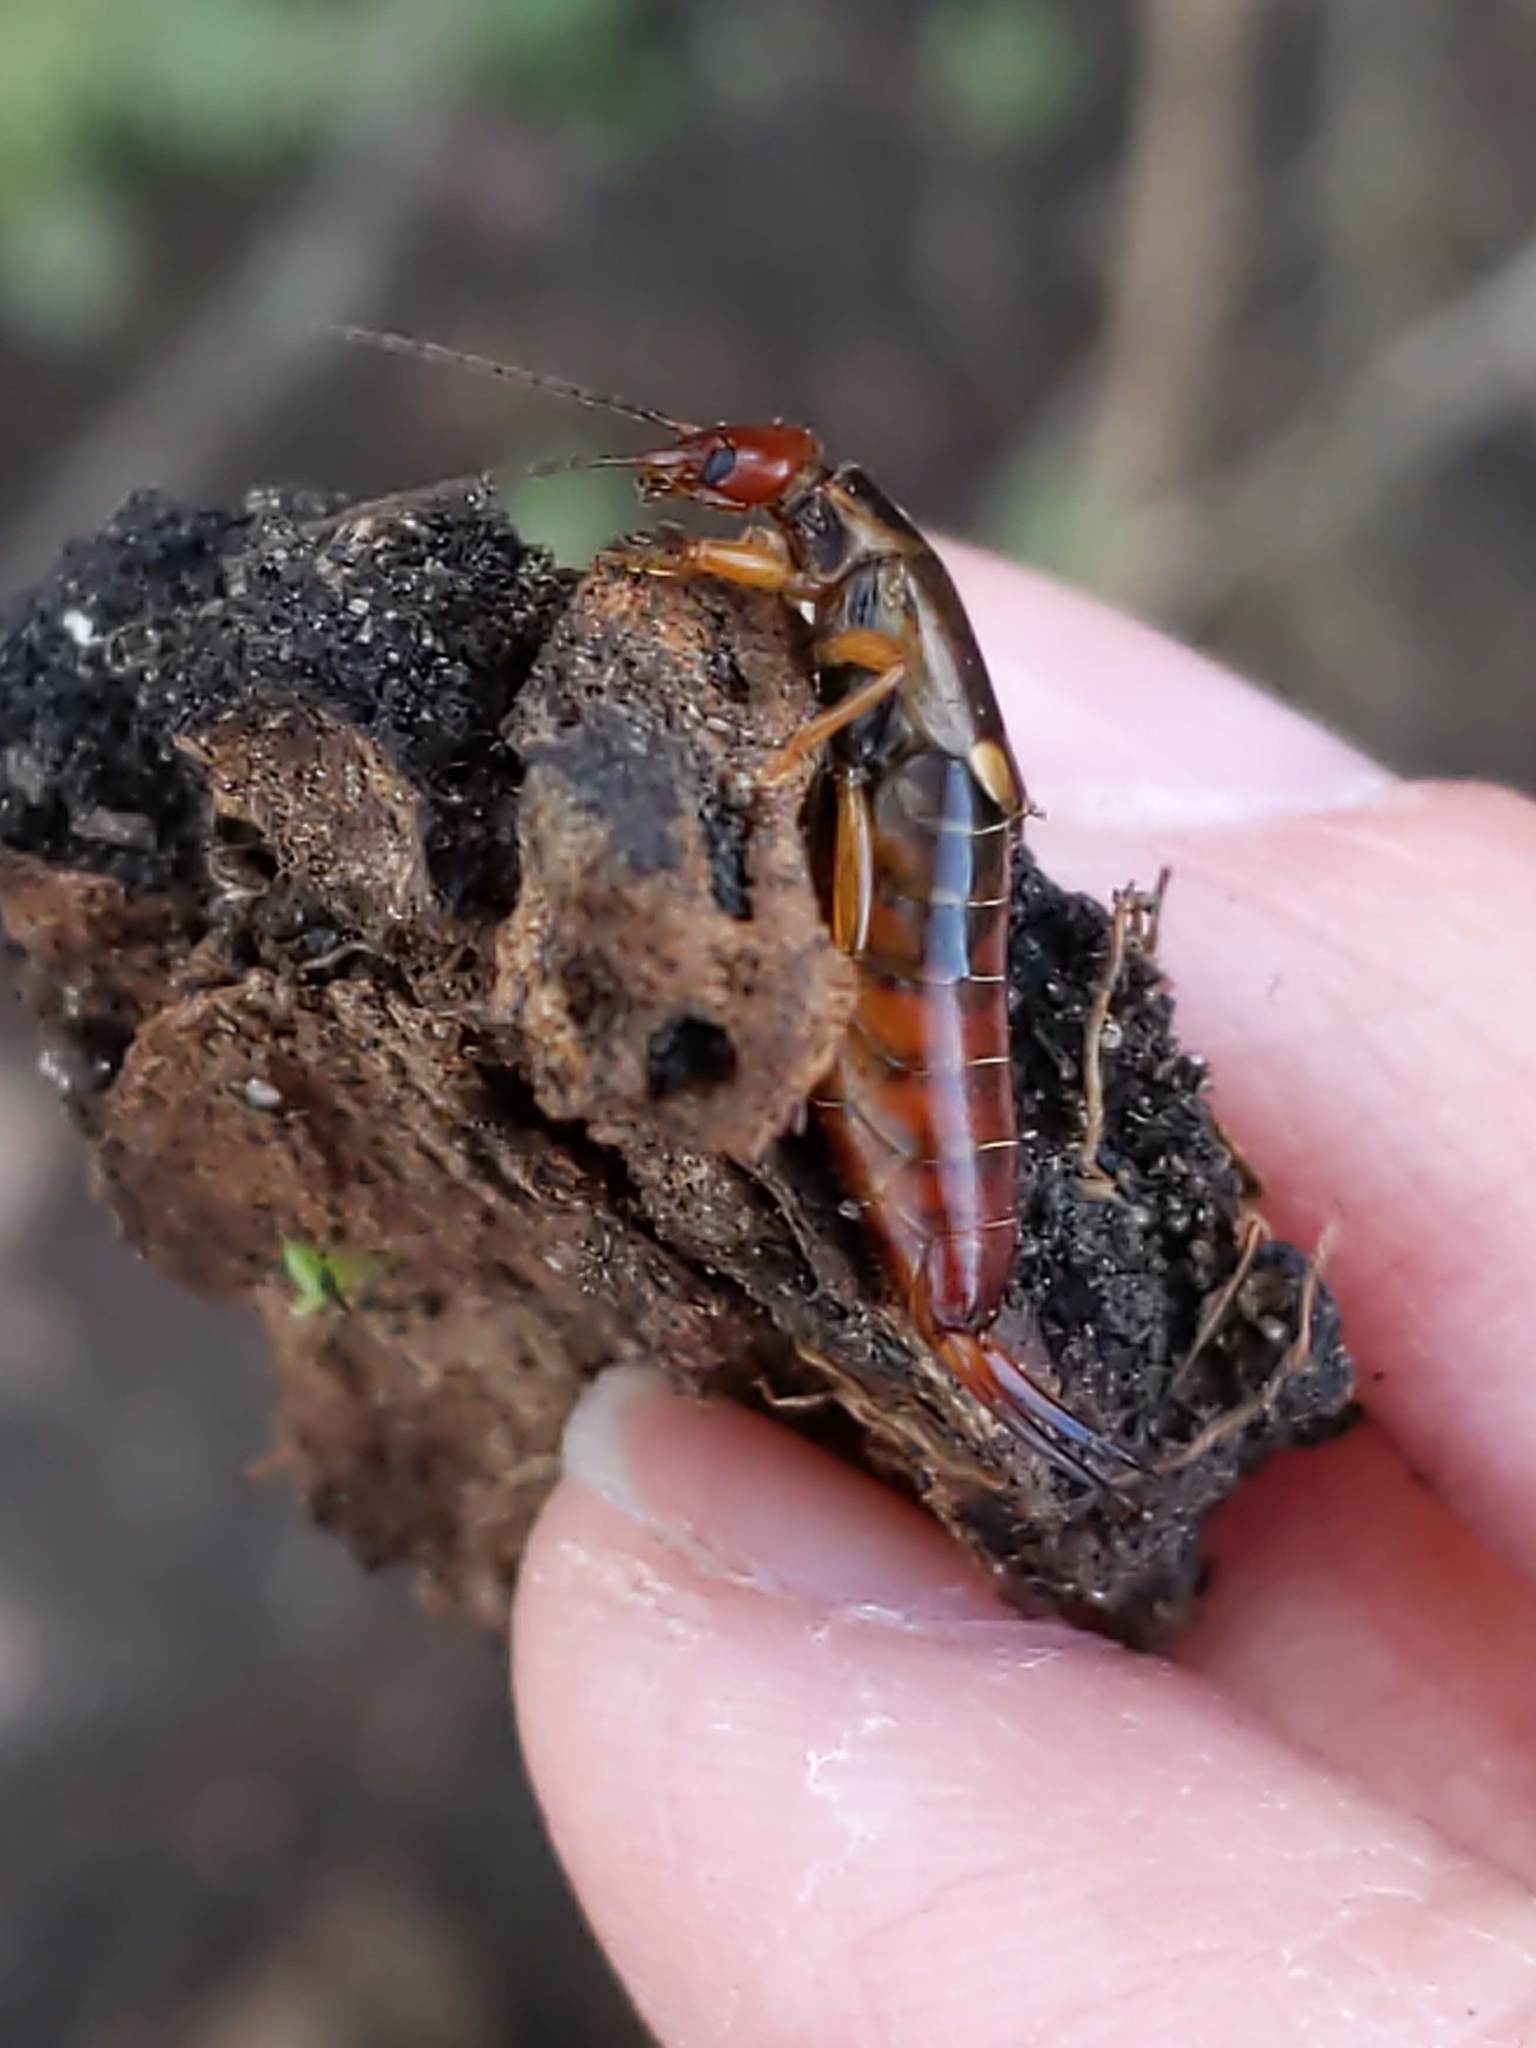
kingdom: Animalia
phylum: Arthropoda
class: Insecta
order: Dermaptera
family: Forficulidae
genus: Forficula
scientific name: Forficula
